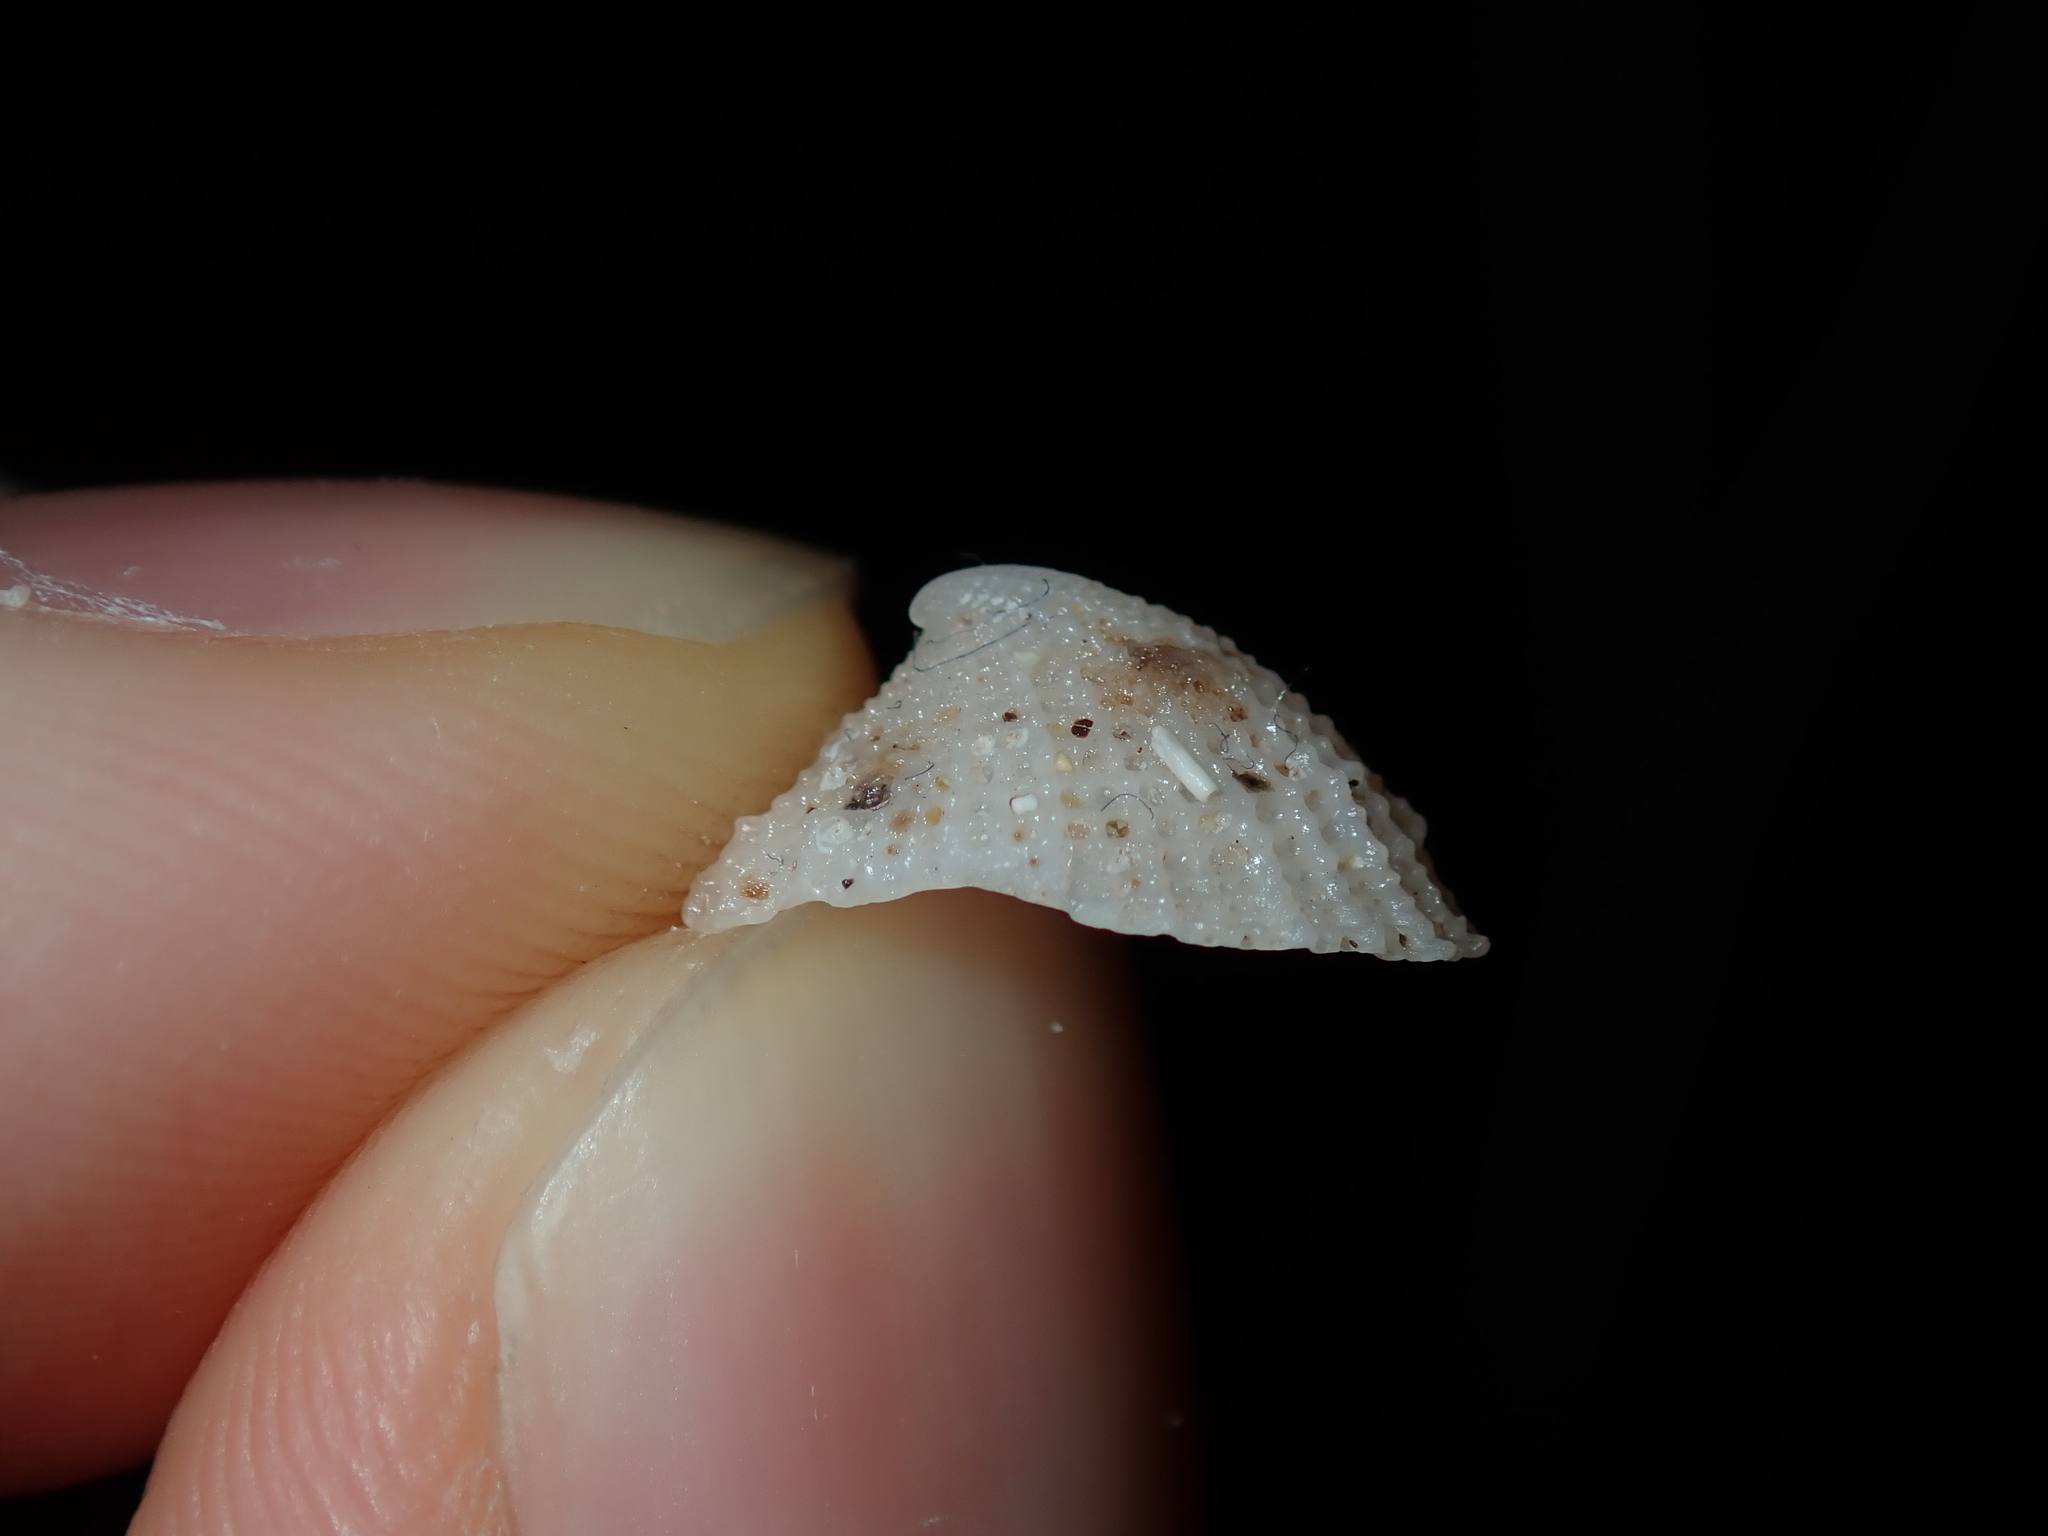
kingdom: Animalia
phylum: Mollusca
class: Gastropoda
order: Lepetellida
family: Fissurellidae
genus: Emarginula
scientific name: Emarginula candida
